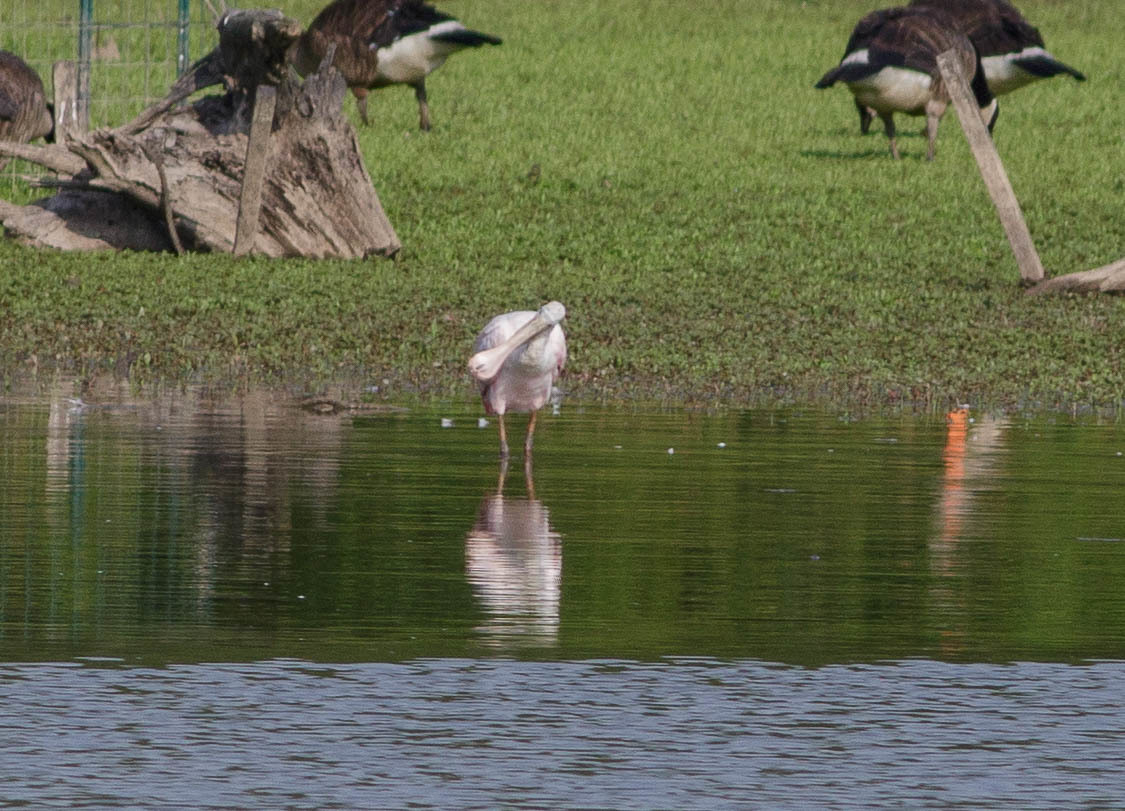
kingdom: Animalia
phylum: Chordata
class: Aves
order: Pelecaniformes
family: Threskiornithidae
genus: Platalea
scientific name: Platalea ajaja
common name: Roseate spoonbill
